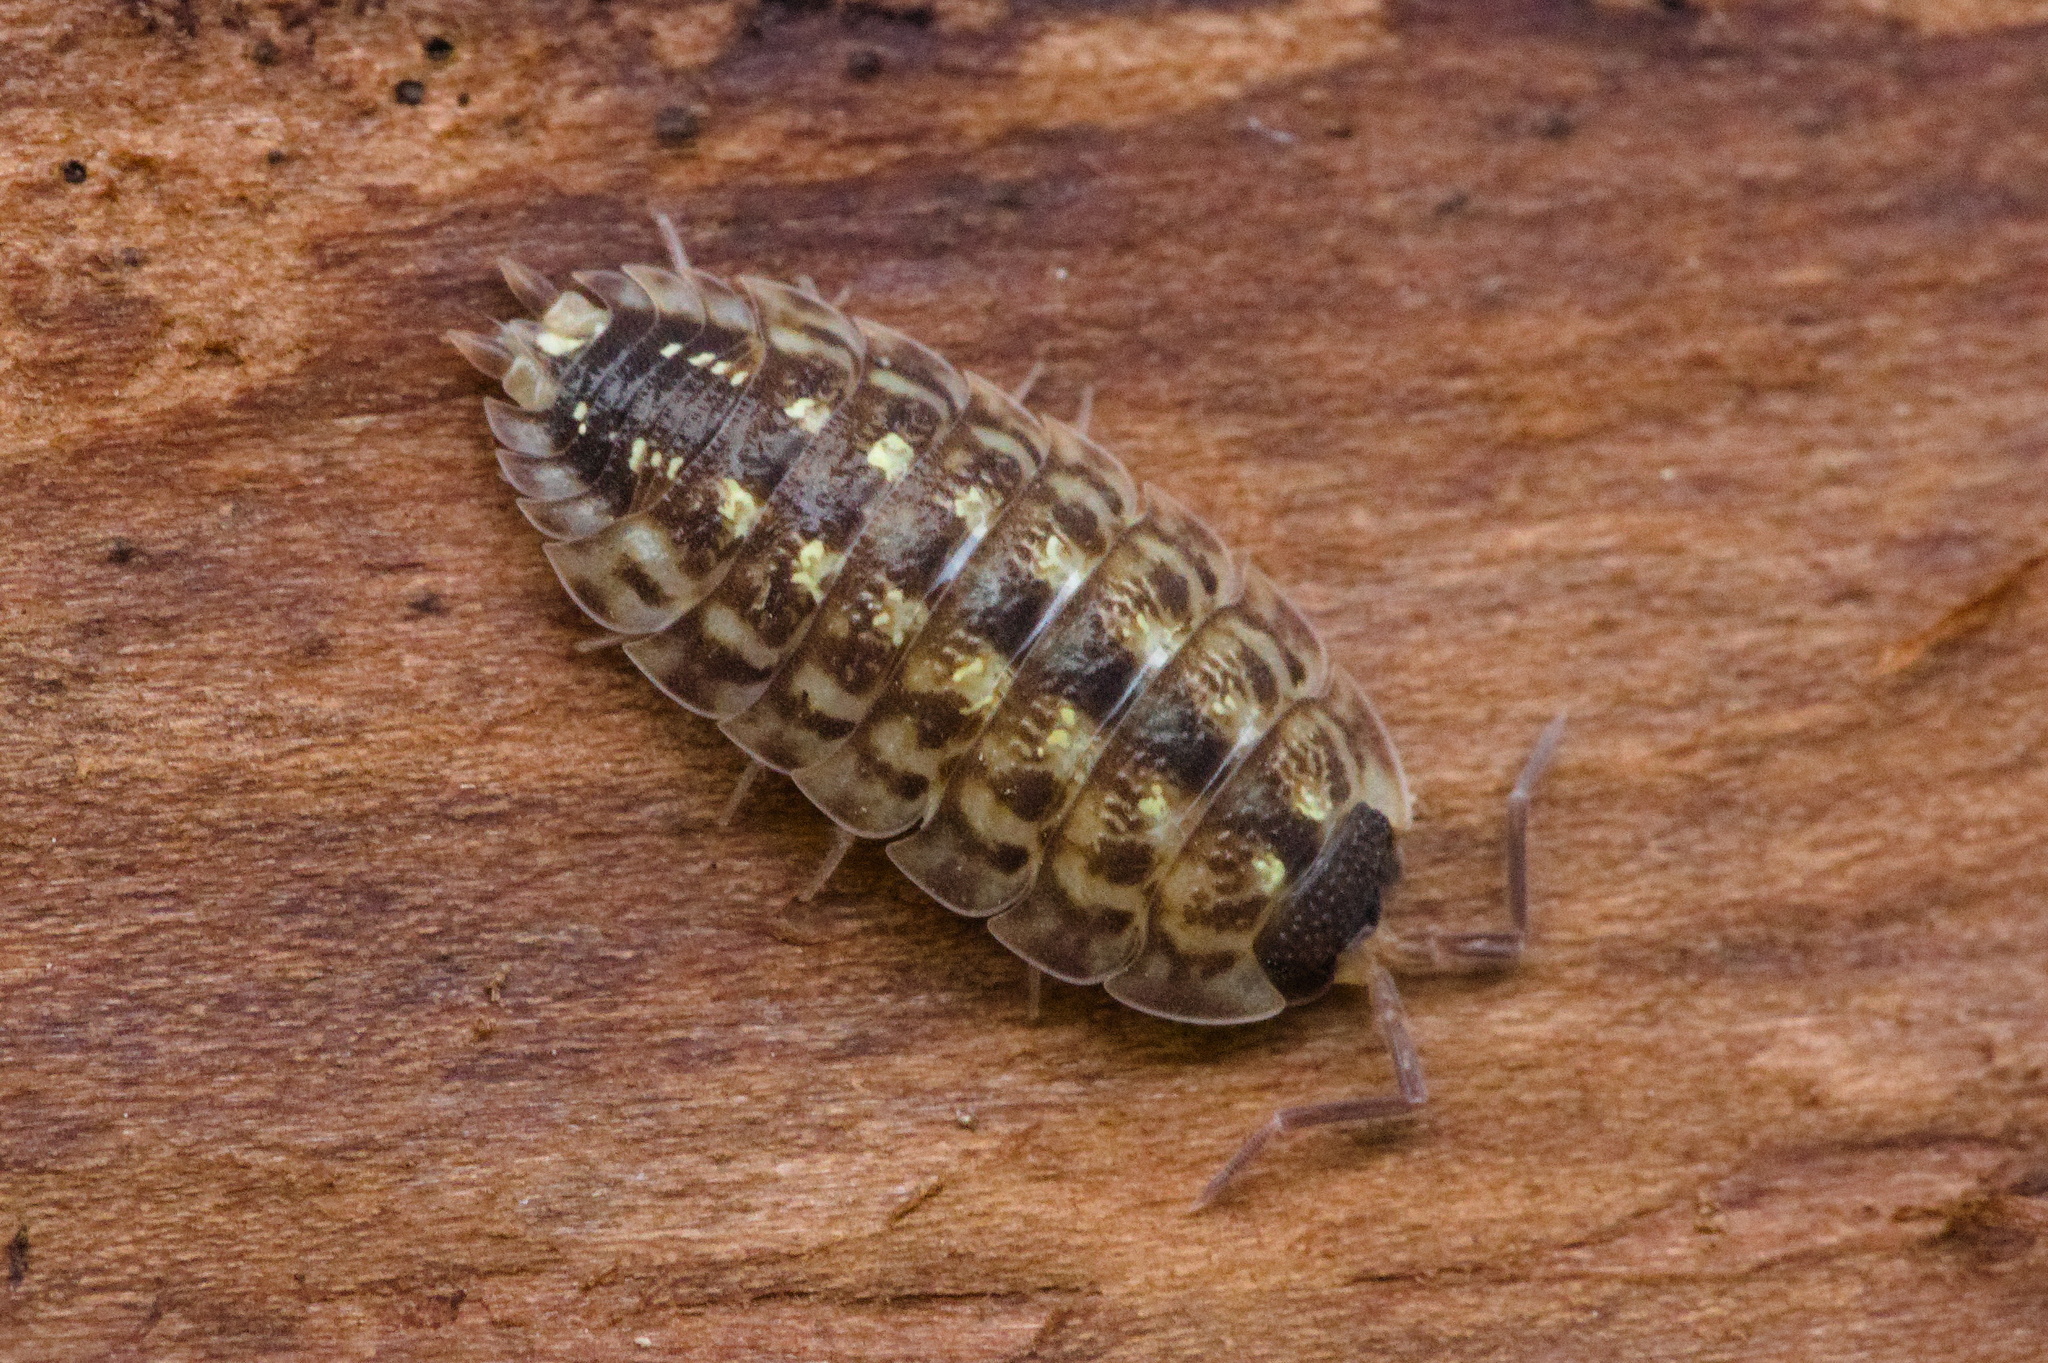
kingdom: Animalia
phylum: Arthropoda
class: Malacostraca
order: Isopoda
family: Porcellionidae
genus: Porcellio
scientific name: Porcellio spinicornis
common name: Painted woodlouse
